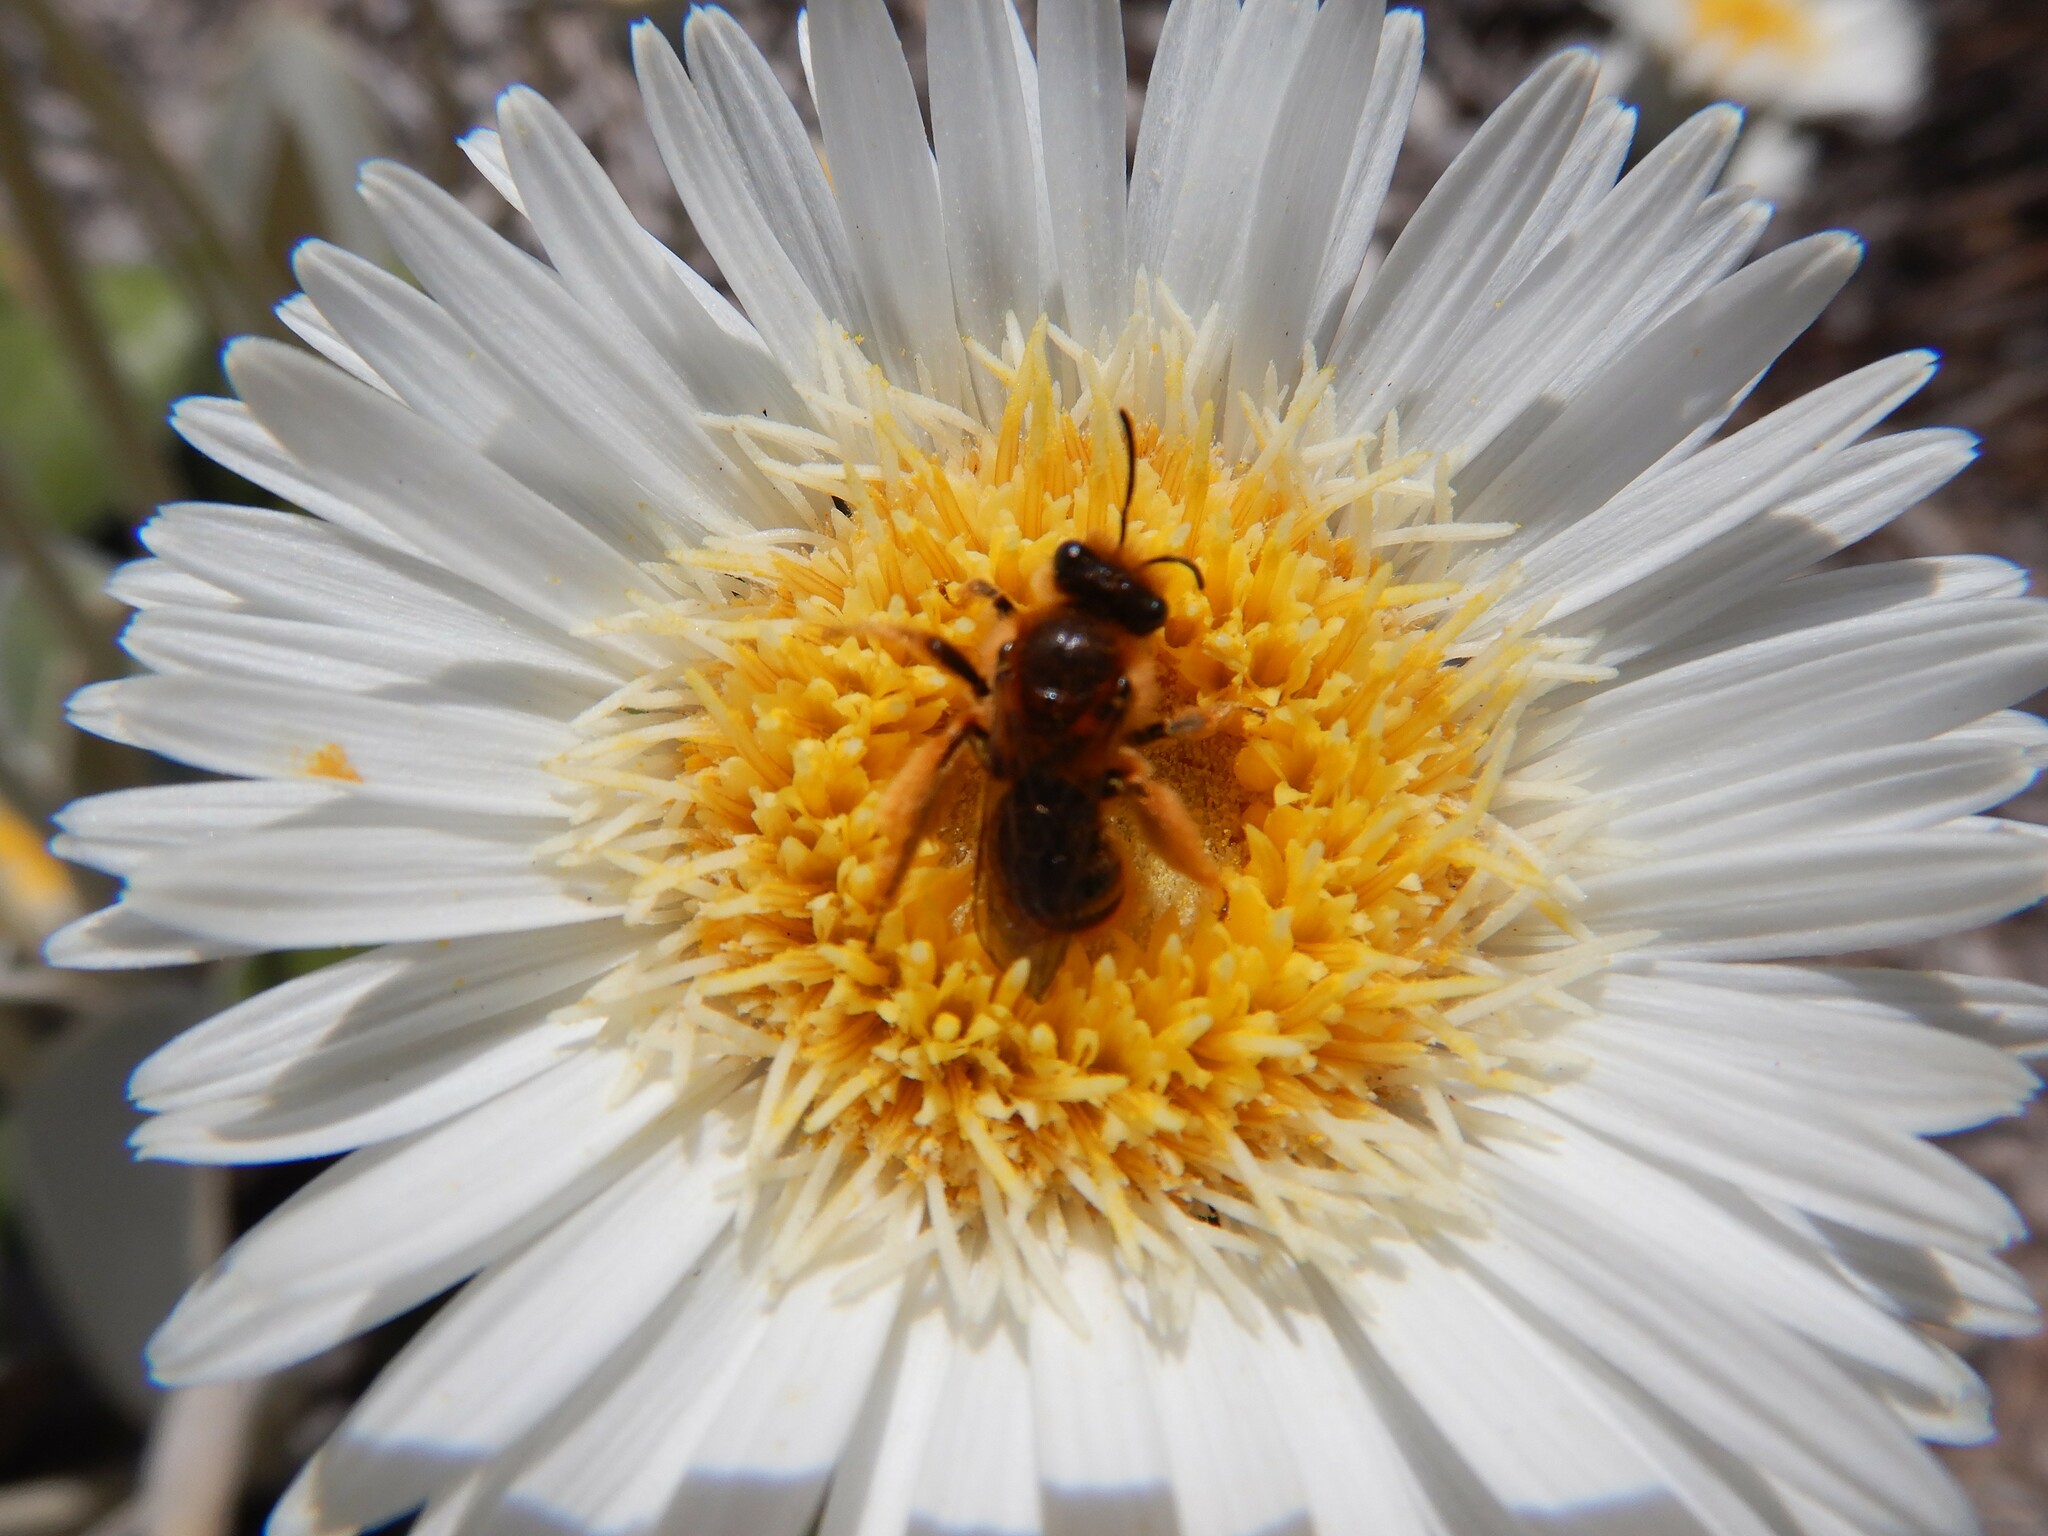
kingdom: Animalia
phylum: Arthropoda
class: Insecta
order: Hymenoptera
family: Colletidae
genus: Leioproctus
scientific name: Leioproctus fulvescens
